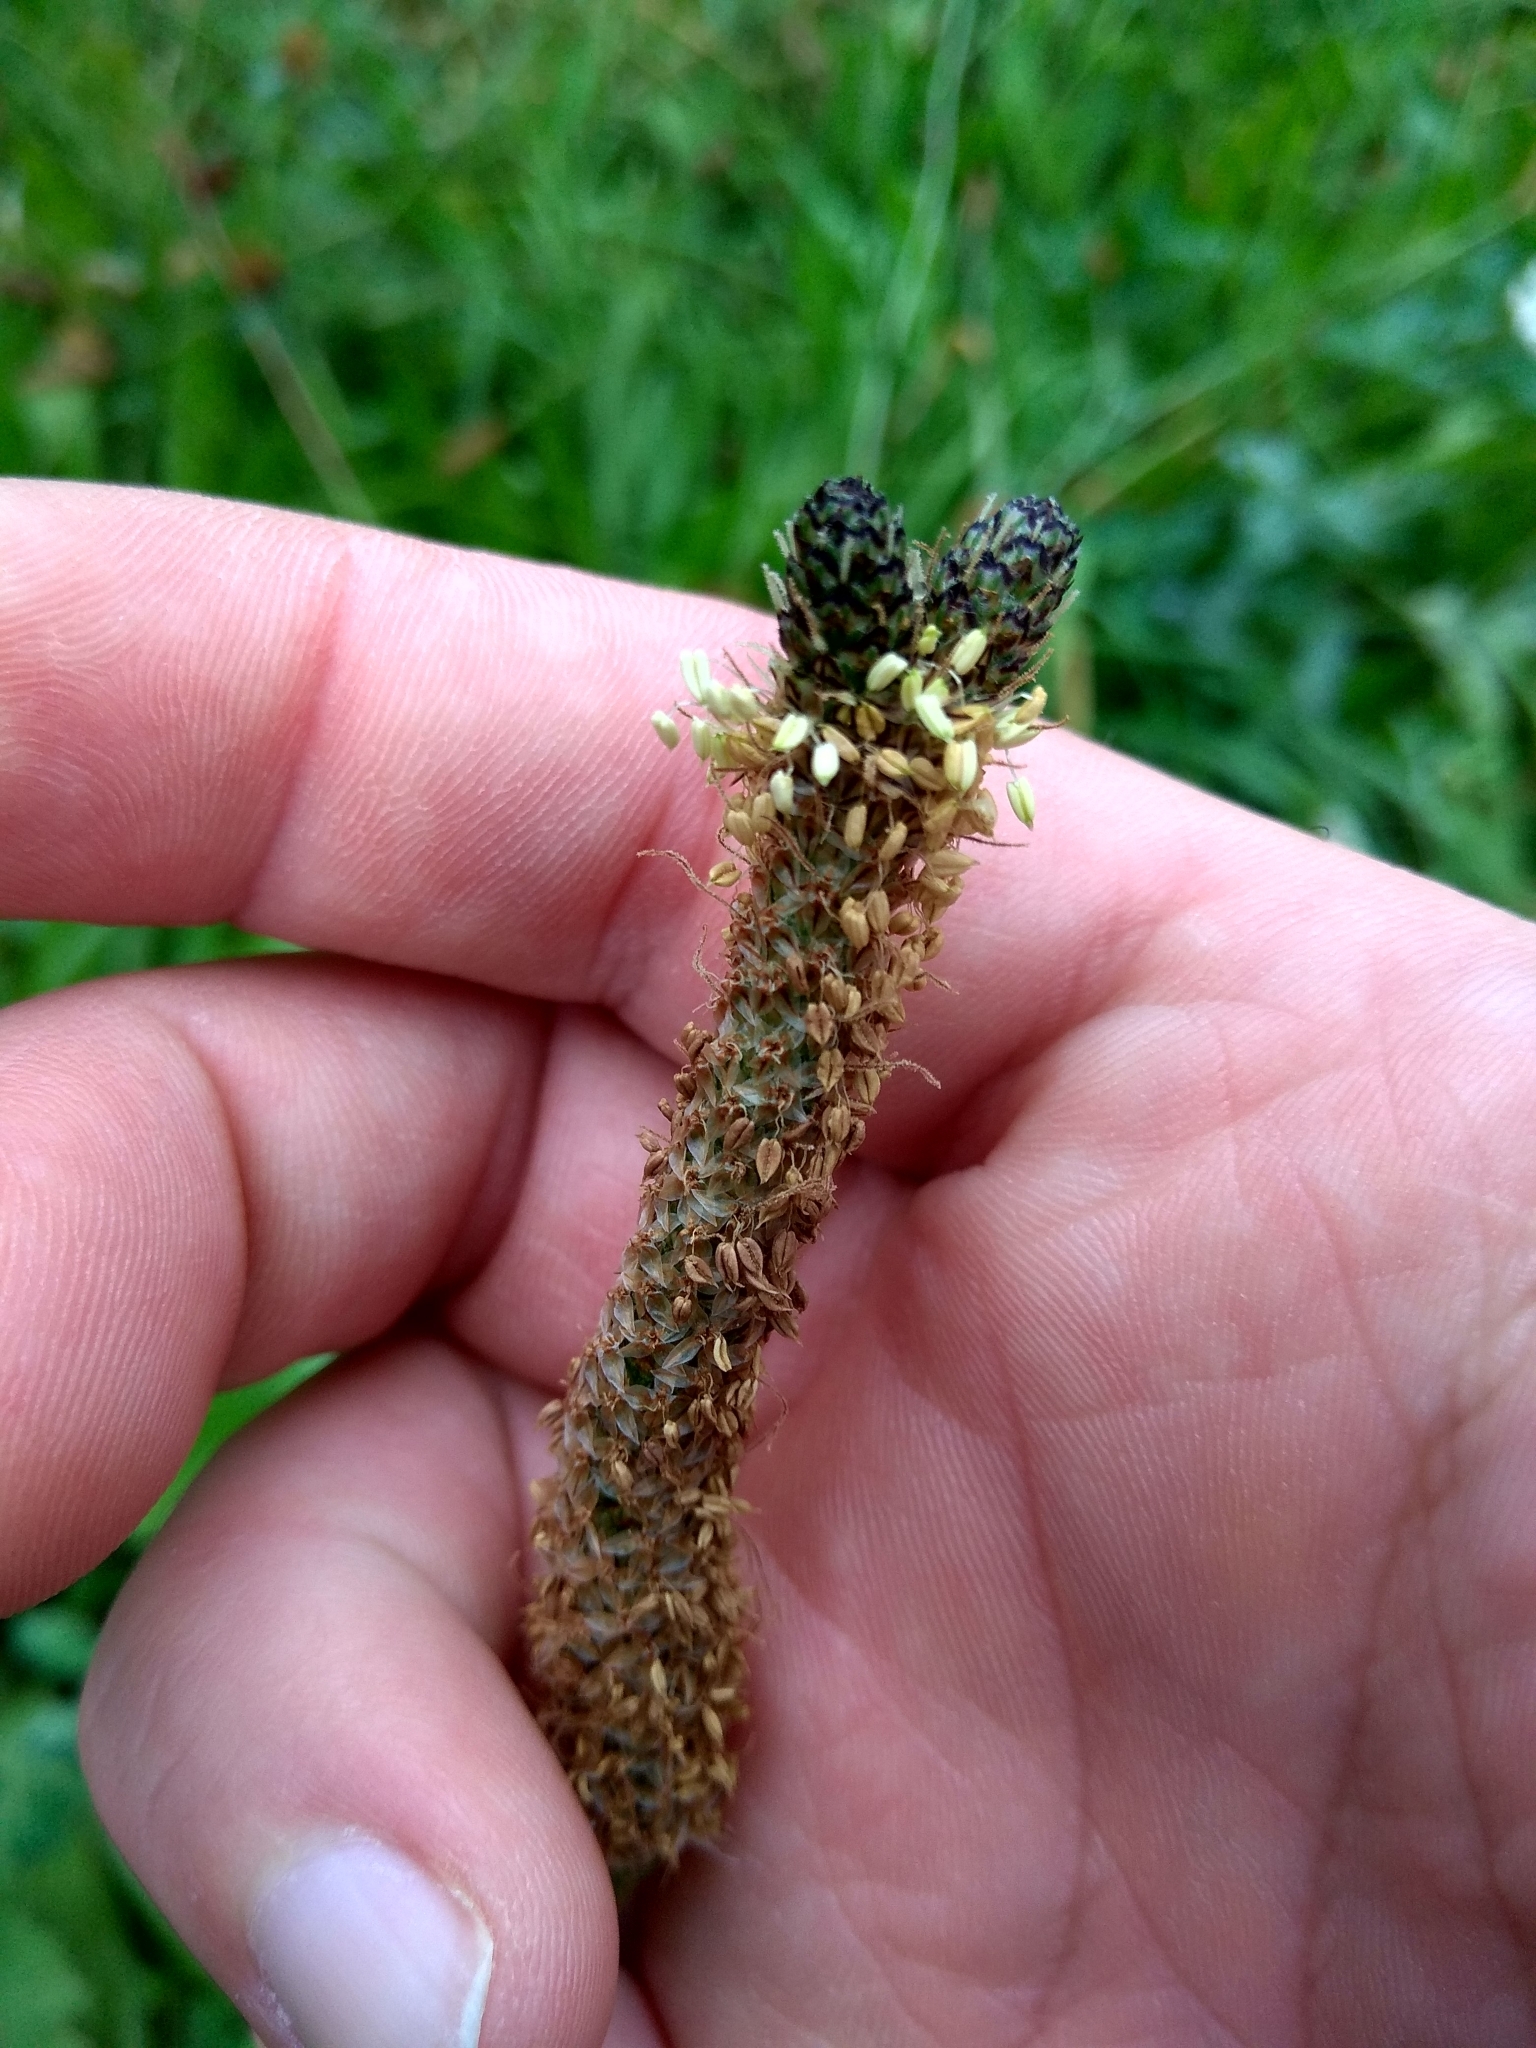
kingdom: Plantae
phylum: Tracheophyta
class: Magnoliopsida
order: Lamiales
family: Plantaginaceae
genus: Plantago
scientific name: Plantago lanceolata
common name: Ribwort plantain
